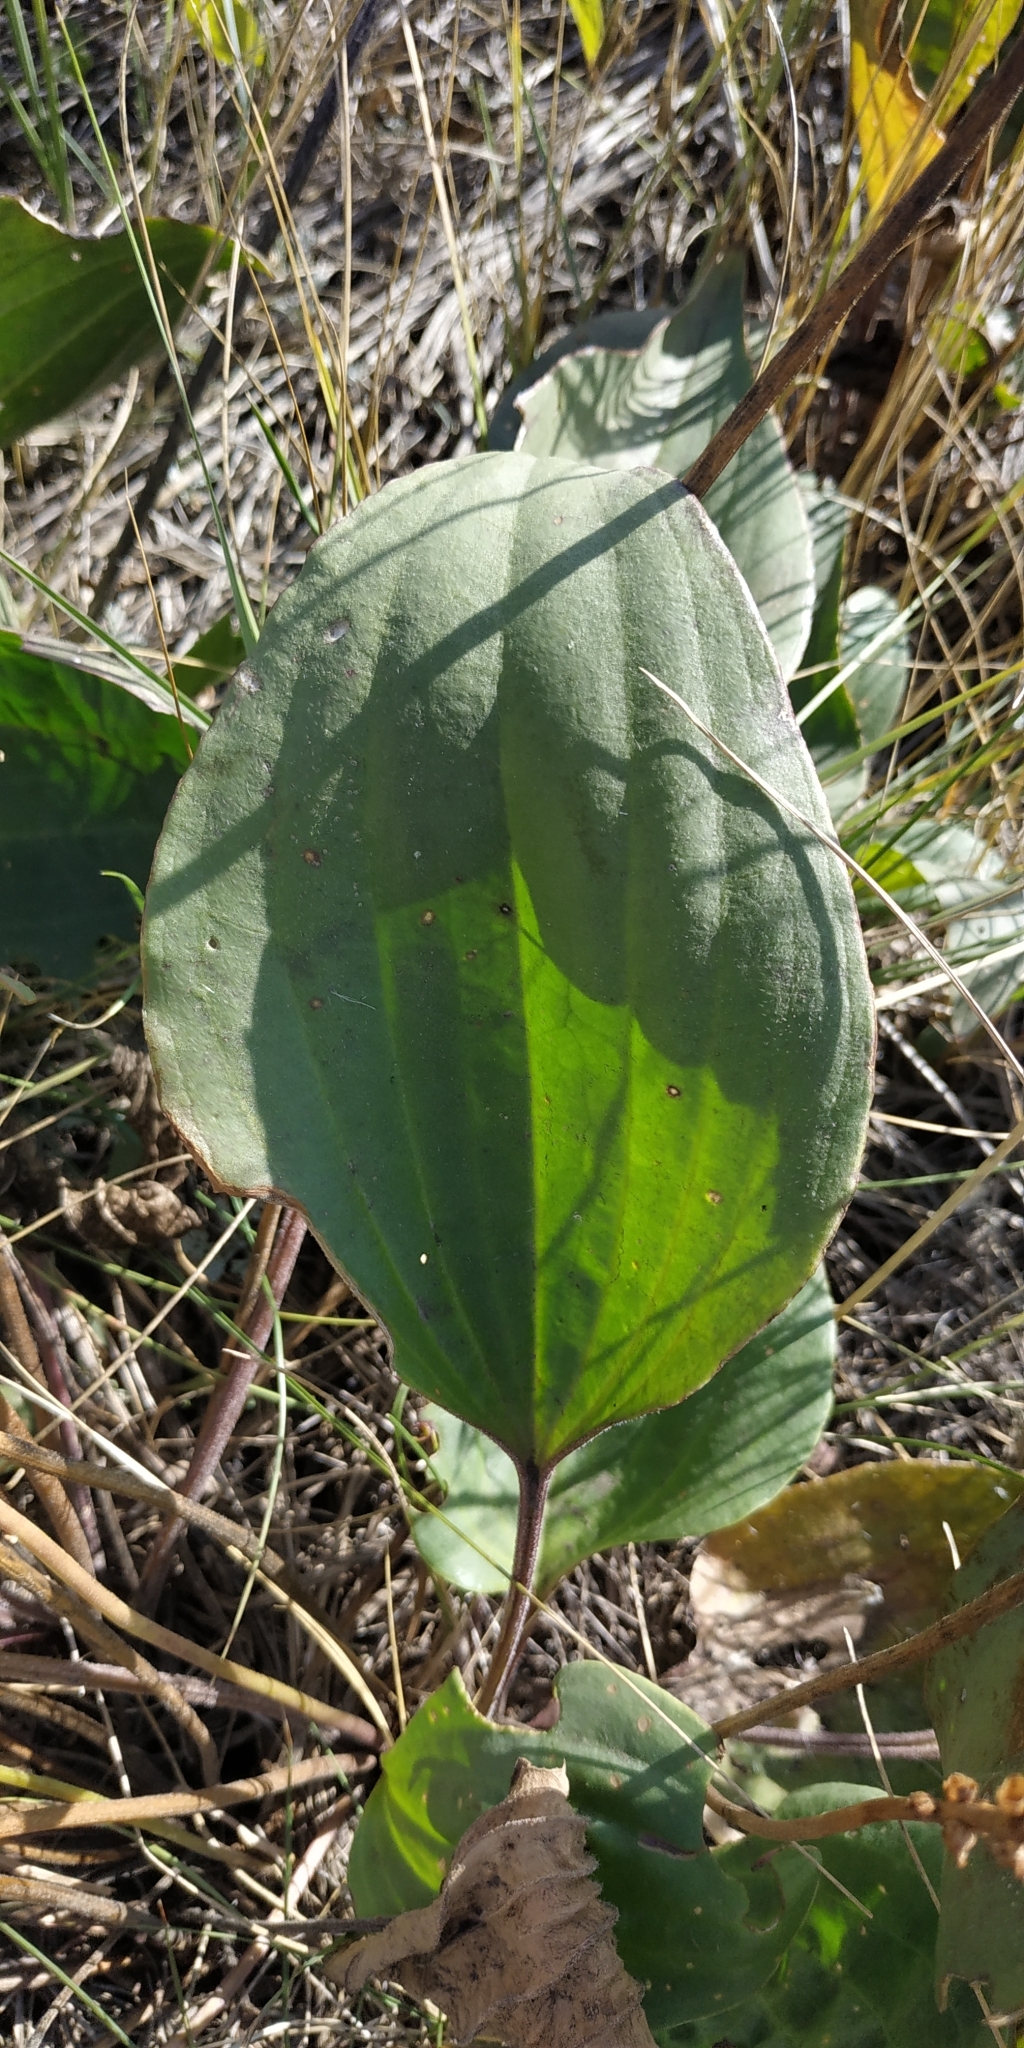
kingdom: Plantae
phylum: Tracheophyta
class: Magnoliopsida
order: Lamiales
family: Plantaginaceae
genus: Plantago
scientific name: Plantago cornuti
